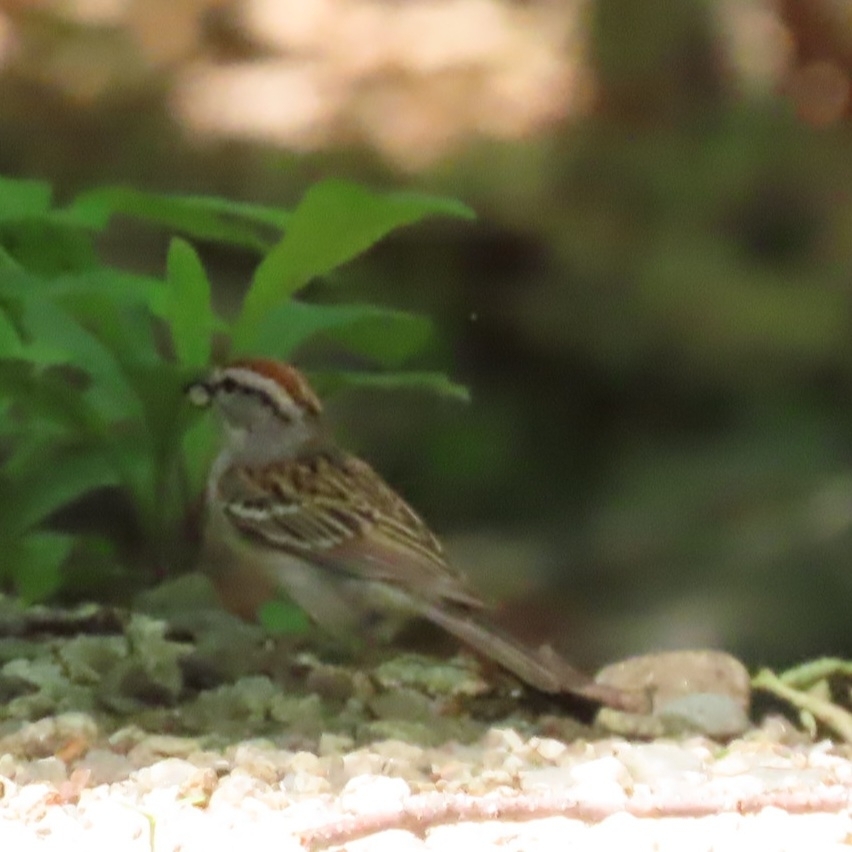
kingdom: Animalia
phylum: Chordata
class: Aves
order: Passeriformes
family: Passerellidae
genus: Spizella
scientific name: Spizella passerina
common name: Chipping sparrow
